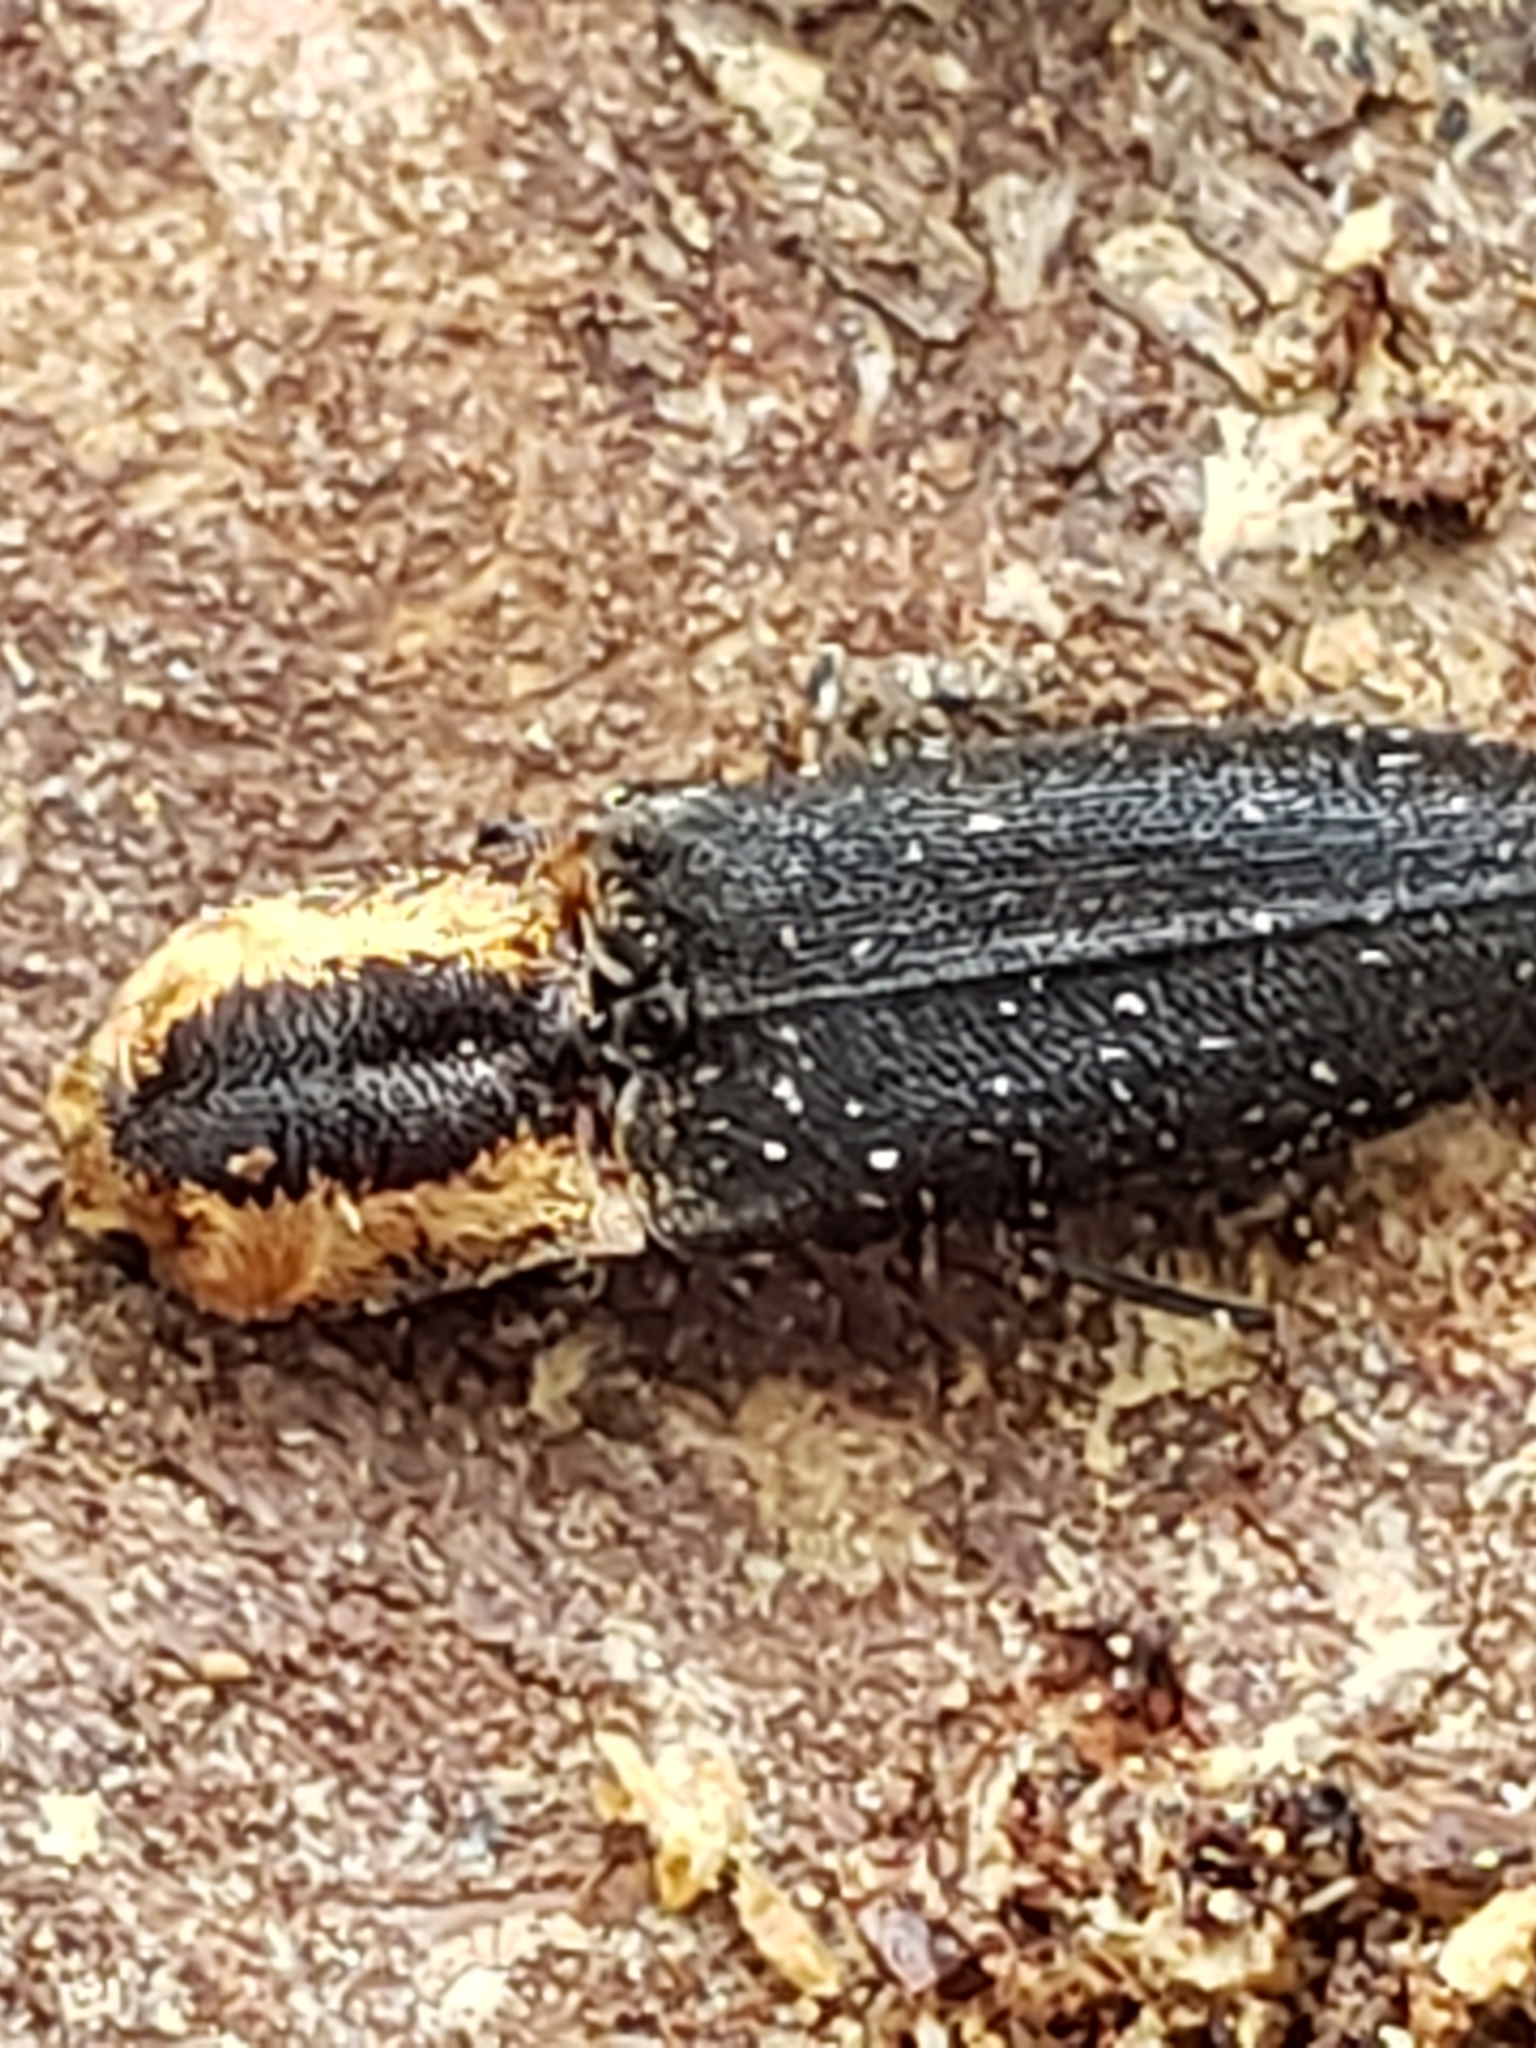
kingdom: Animalia
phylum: Arthropoda
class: Insecta
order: Coleoptera
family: Elateridae
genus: Lacon
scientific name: Lacon discoideus
